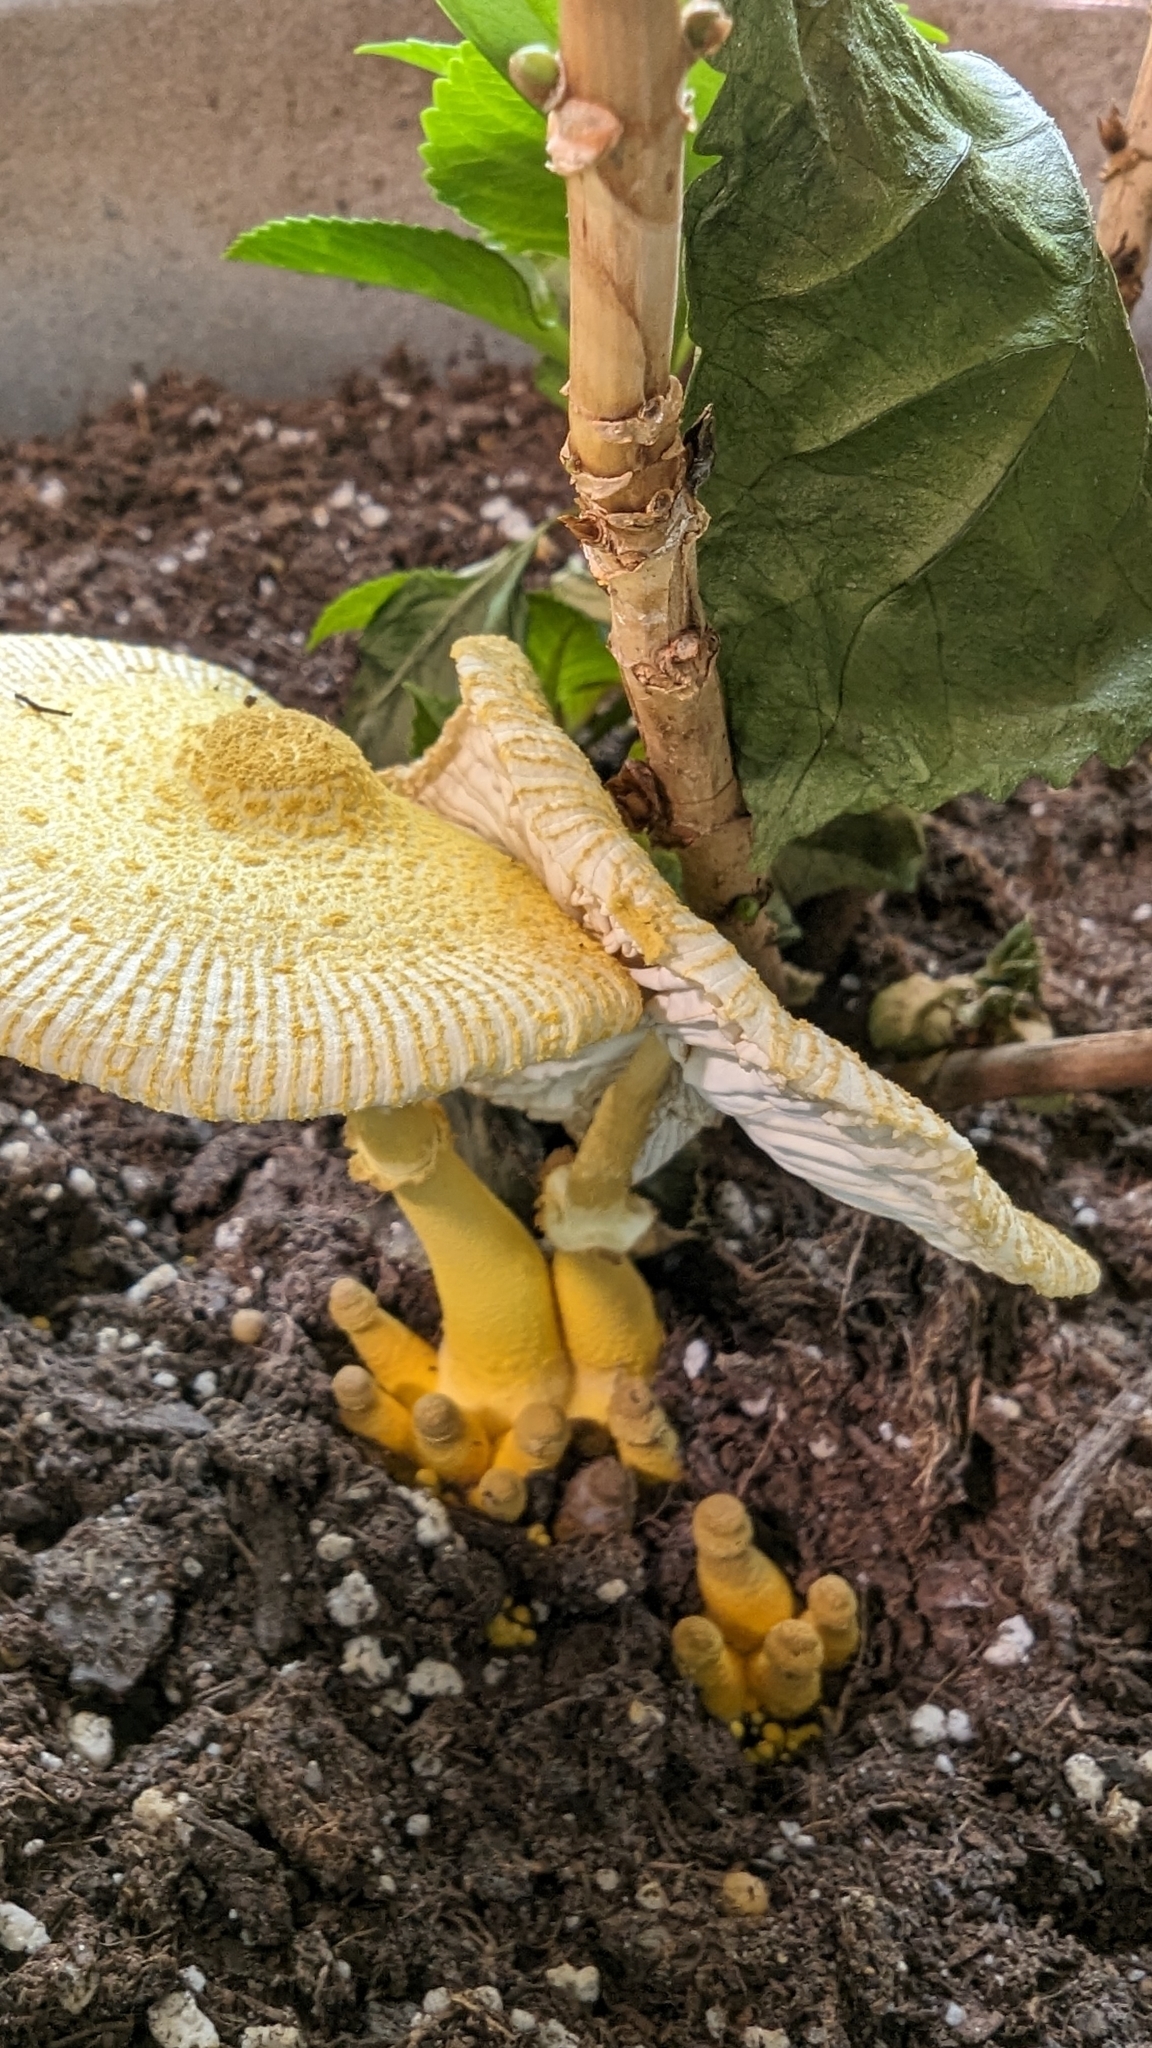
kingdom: Fungi
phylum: Basidiomycota
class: Agaricomycetes
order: Agaricales
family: Agaricaceae
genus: Leucocoprinus
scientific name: Leucocoprinus birnbaumii
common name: Plantpot dapperling
